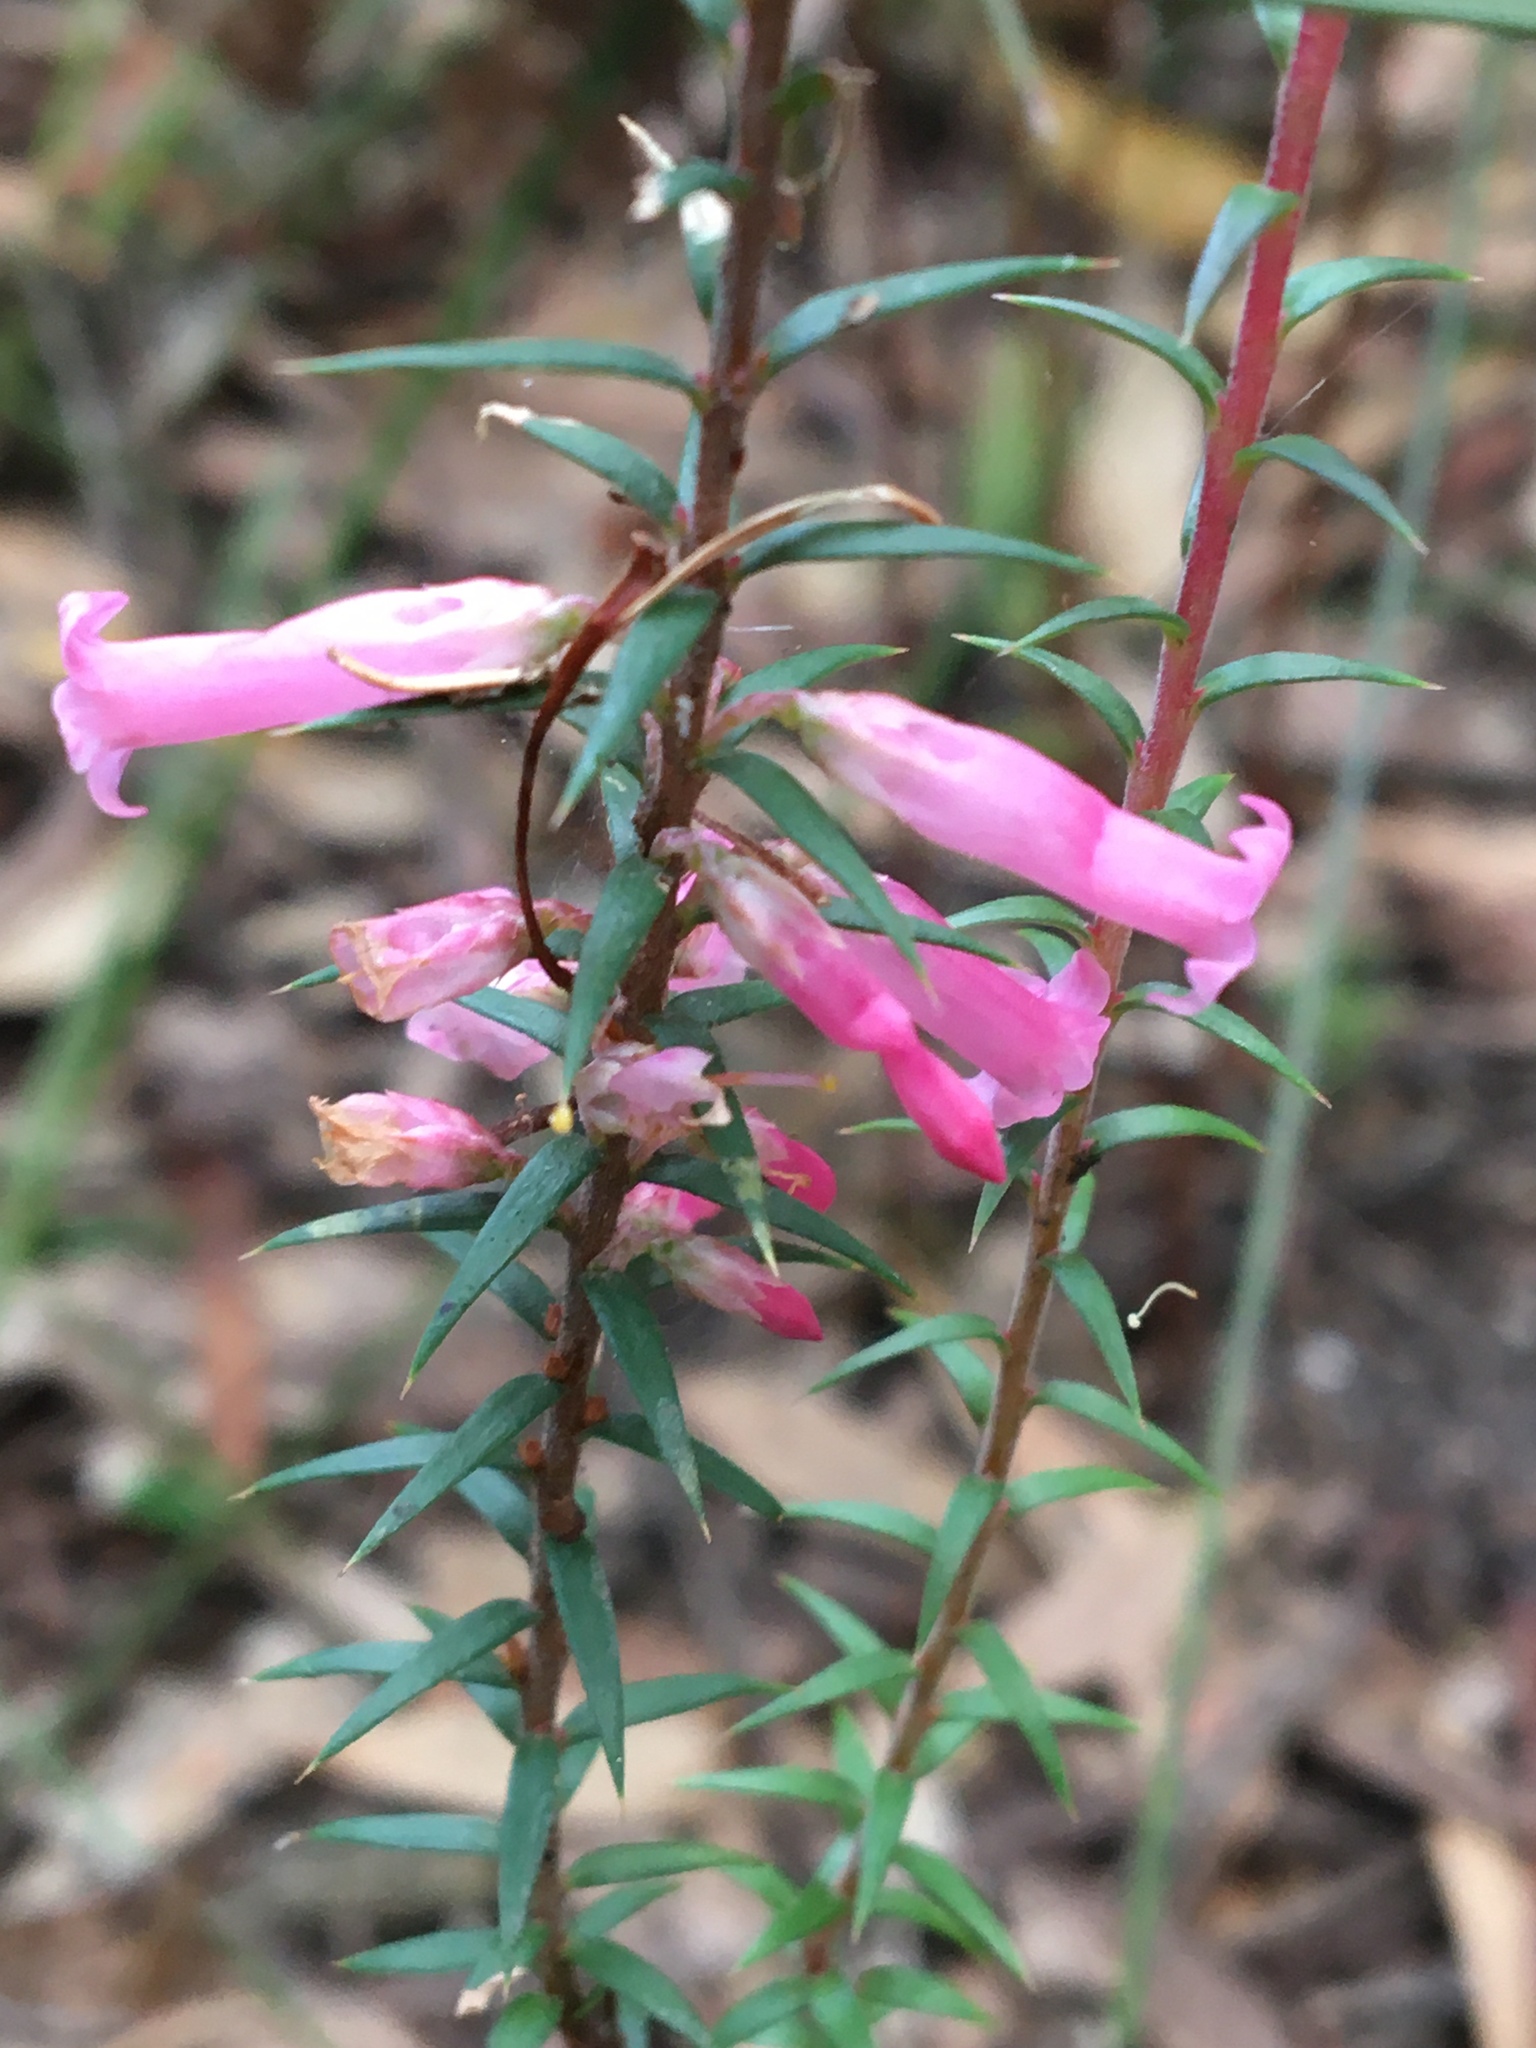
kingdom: Plantae
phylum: Tracheophyta
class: Magnoliopsida
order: Ericales
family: Ericaceae
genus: Epacris
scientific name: Epacris impressa
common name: Common-heath
